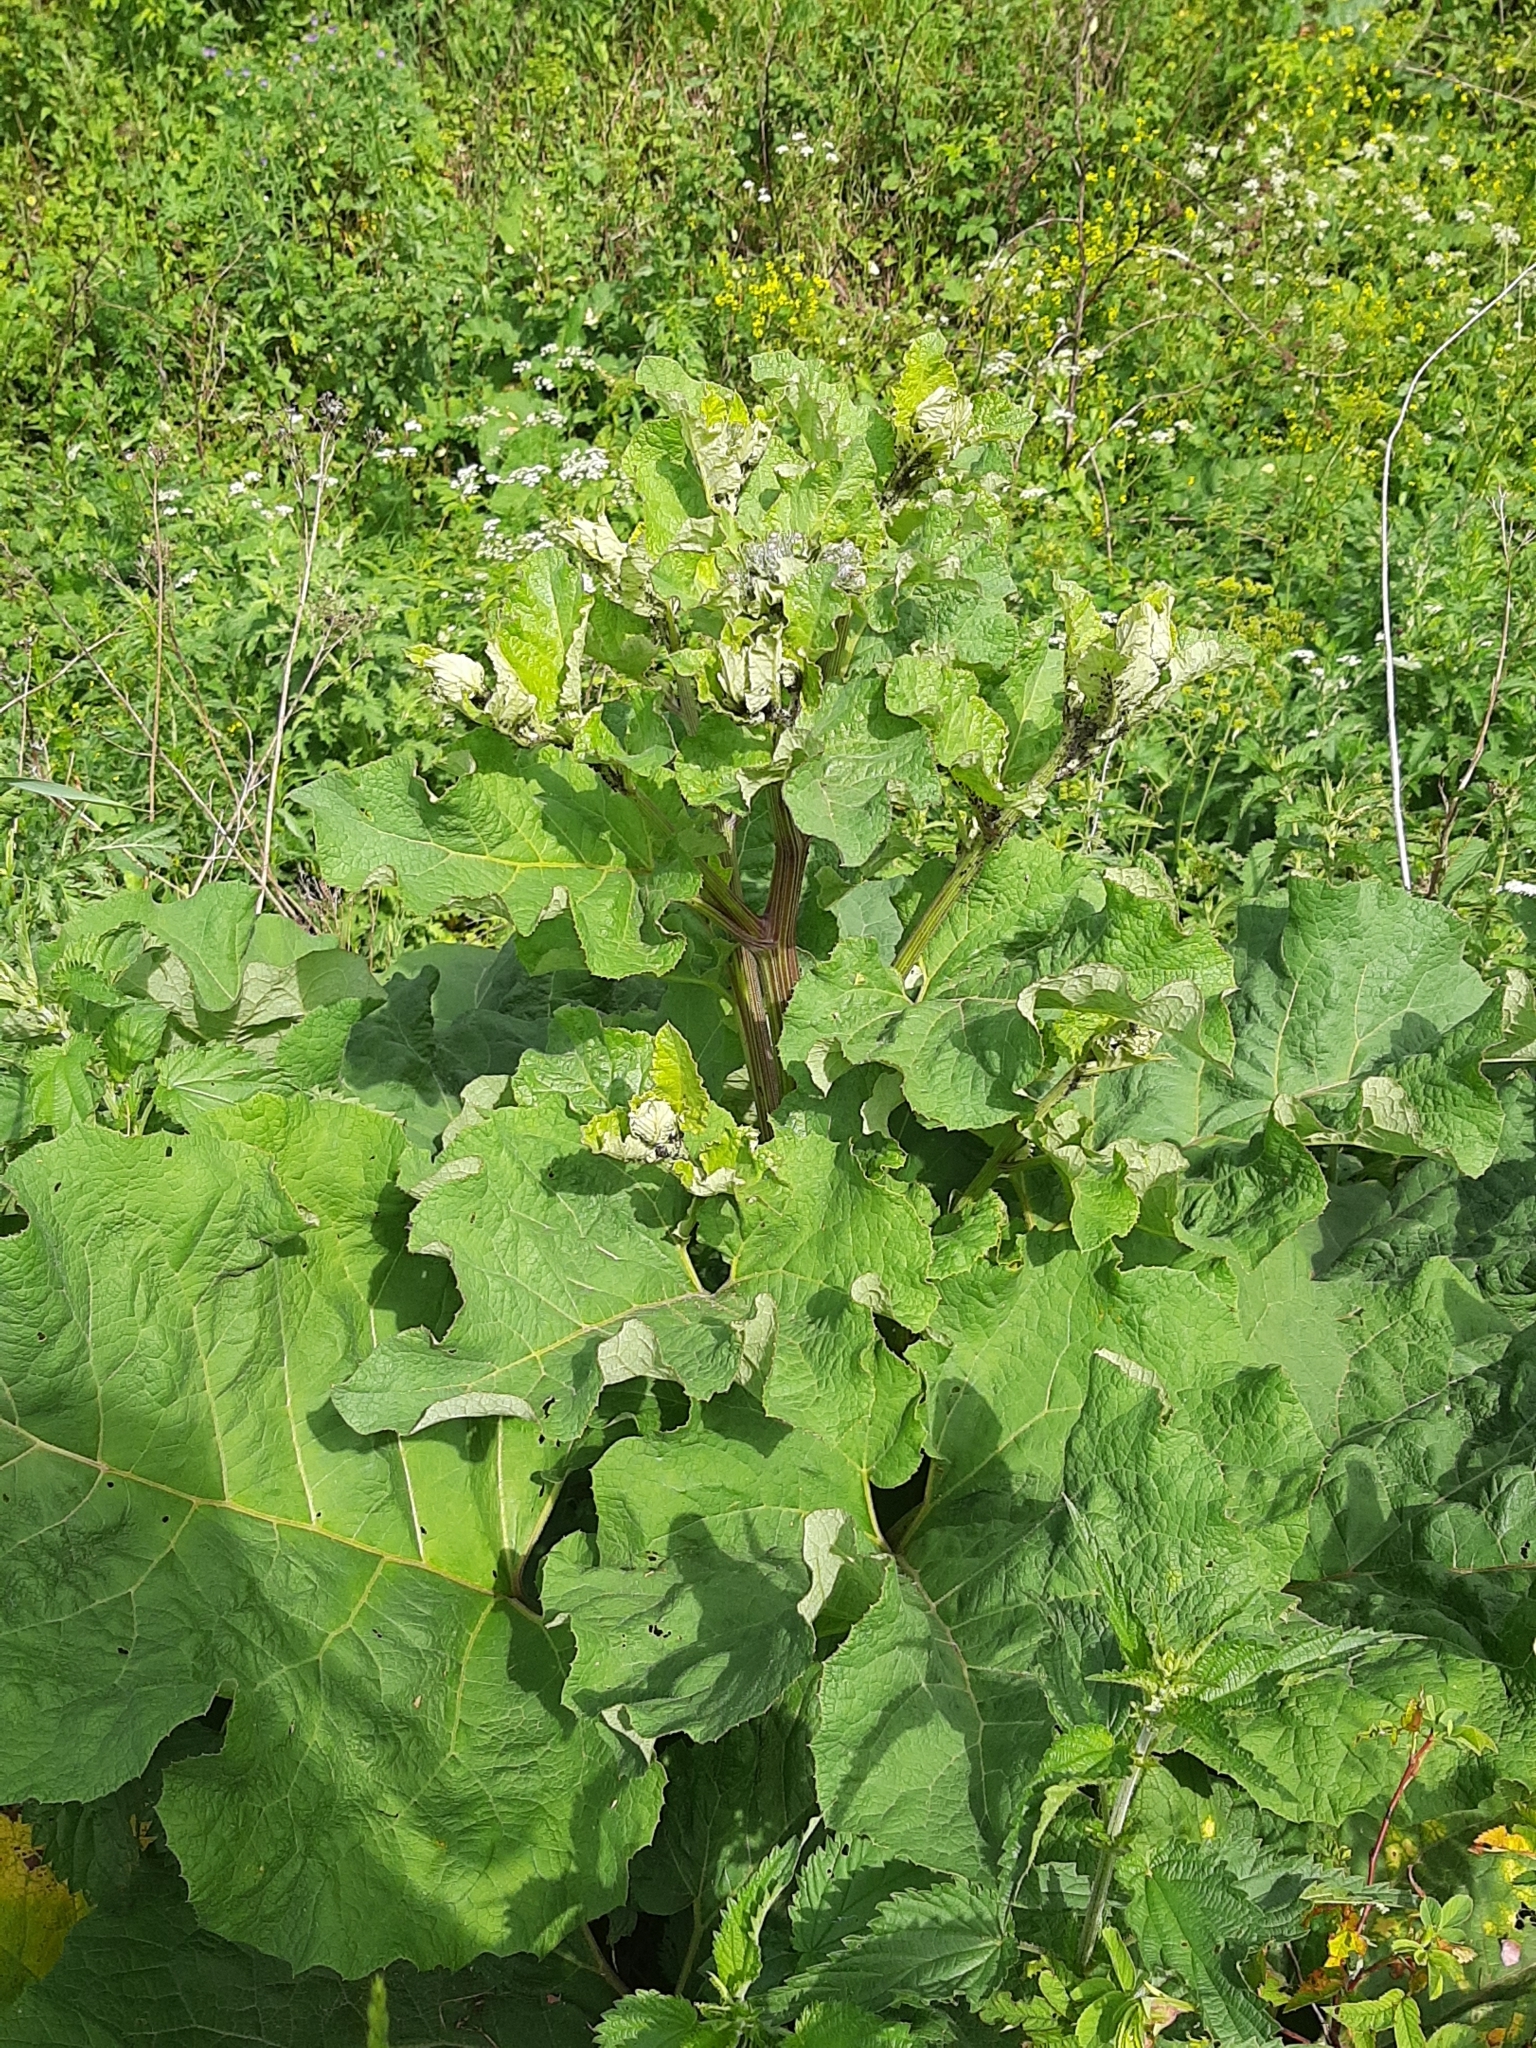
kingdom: Plantae
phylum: Tracheophyta
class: Magnoliopsida
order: Asterales
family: Asteraceae
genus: Arctium
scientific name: Arctium tomentosum
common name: Woolly burdock
